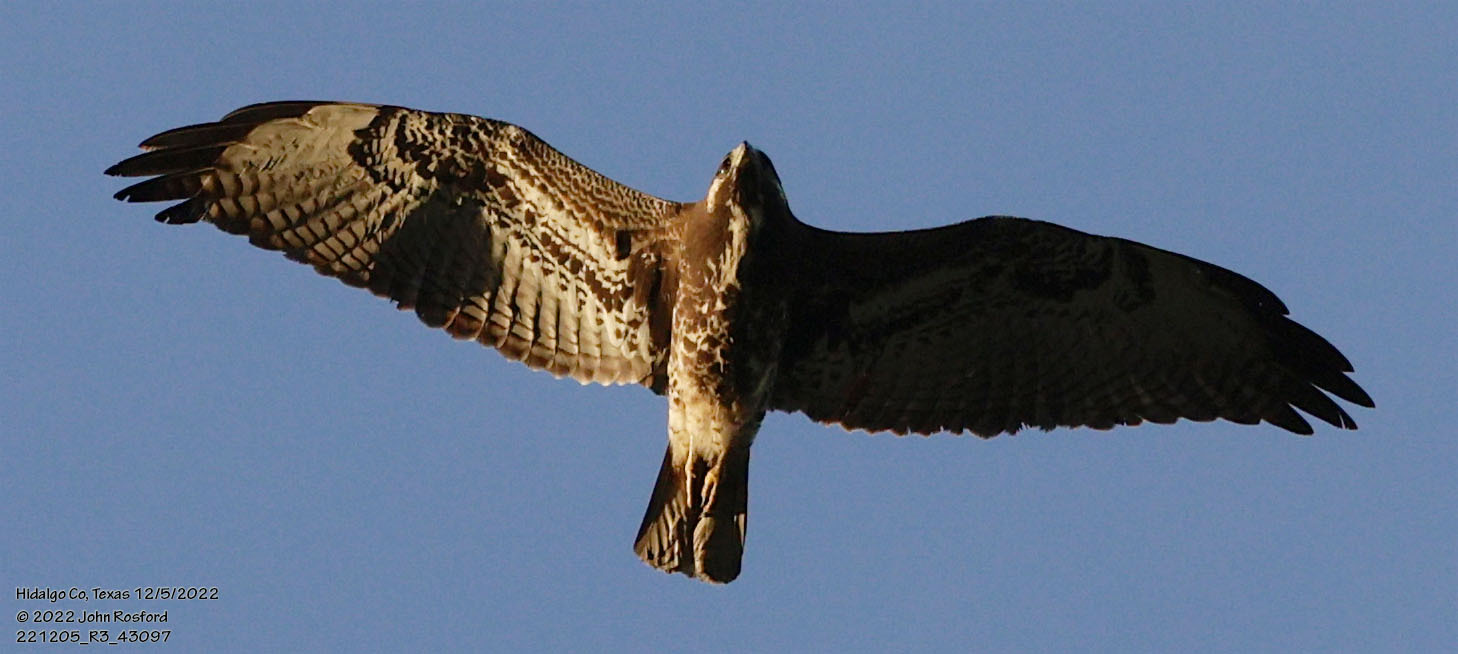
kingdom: Animalia
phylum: Chordata
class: Aves
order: Accipitriformes
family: Accipitridae
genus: Buteo
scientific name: Buteo albicaudatus
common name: White-tailed hawk
